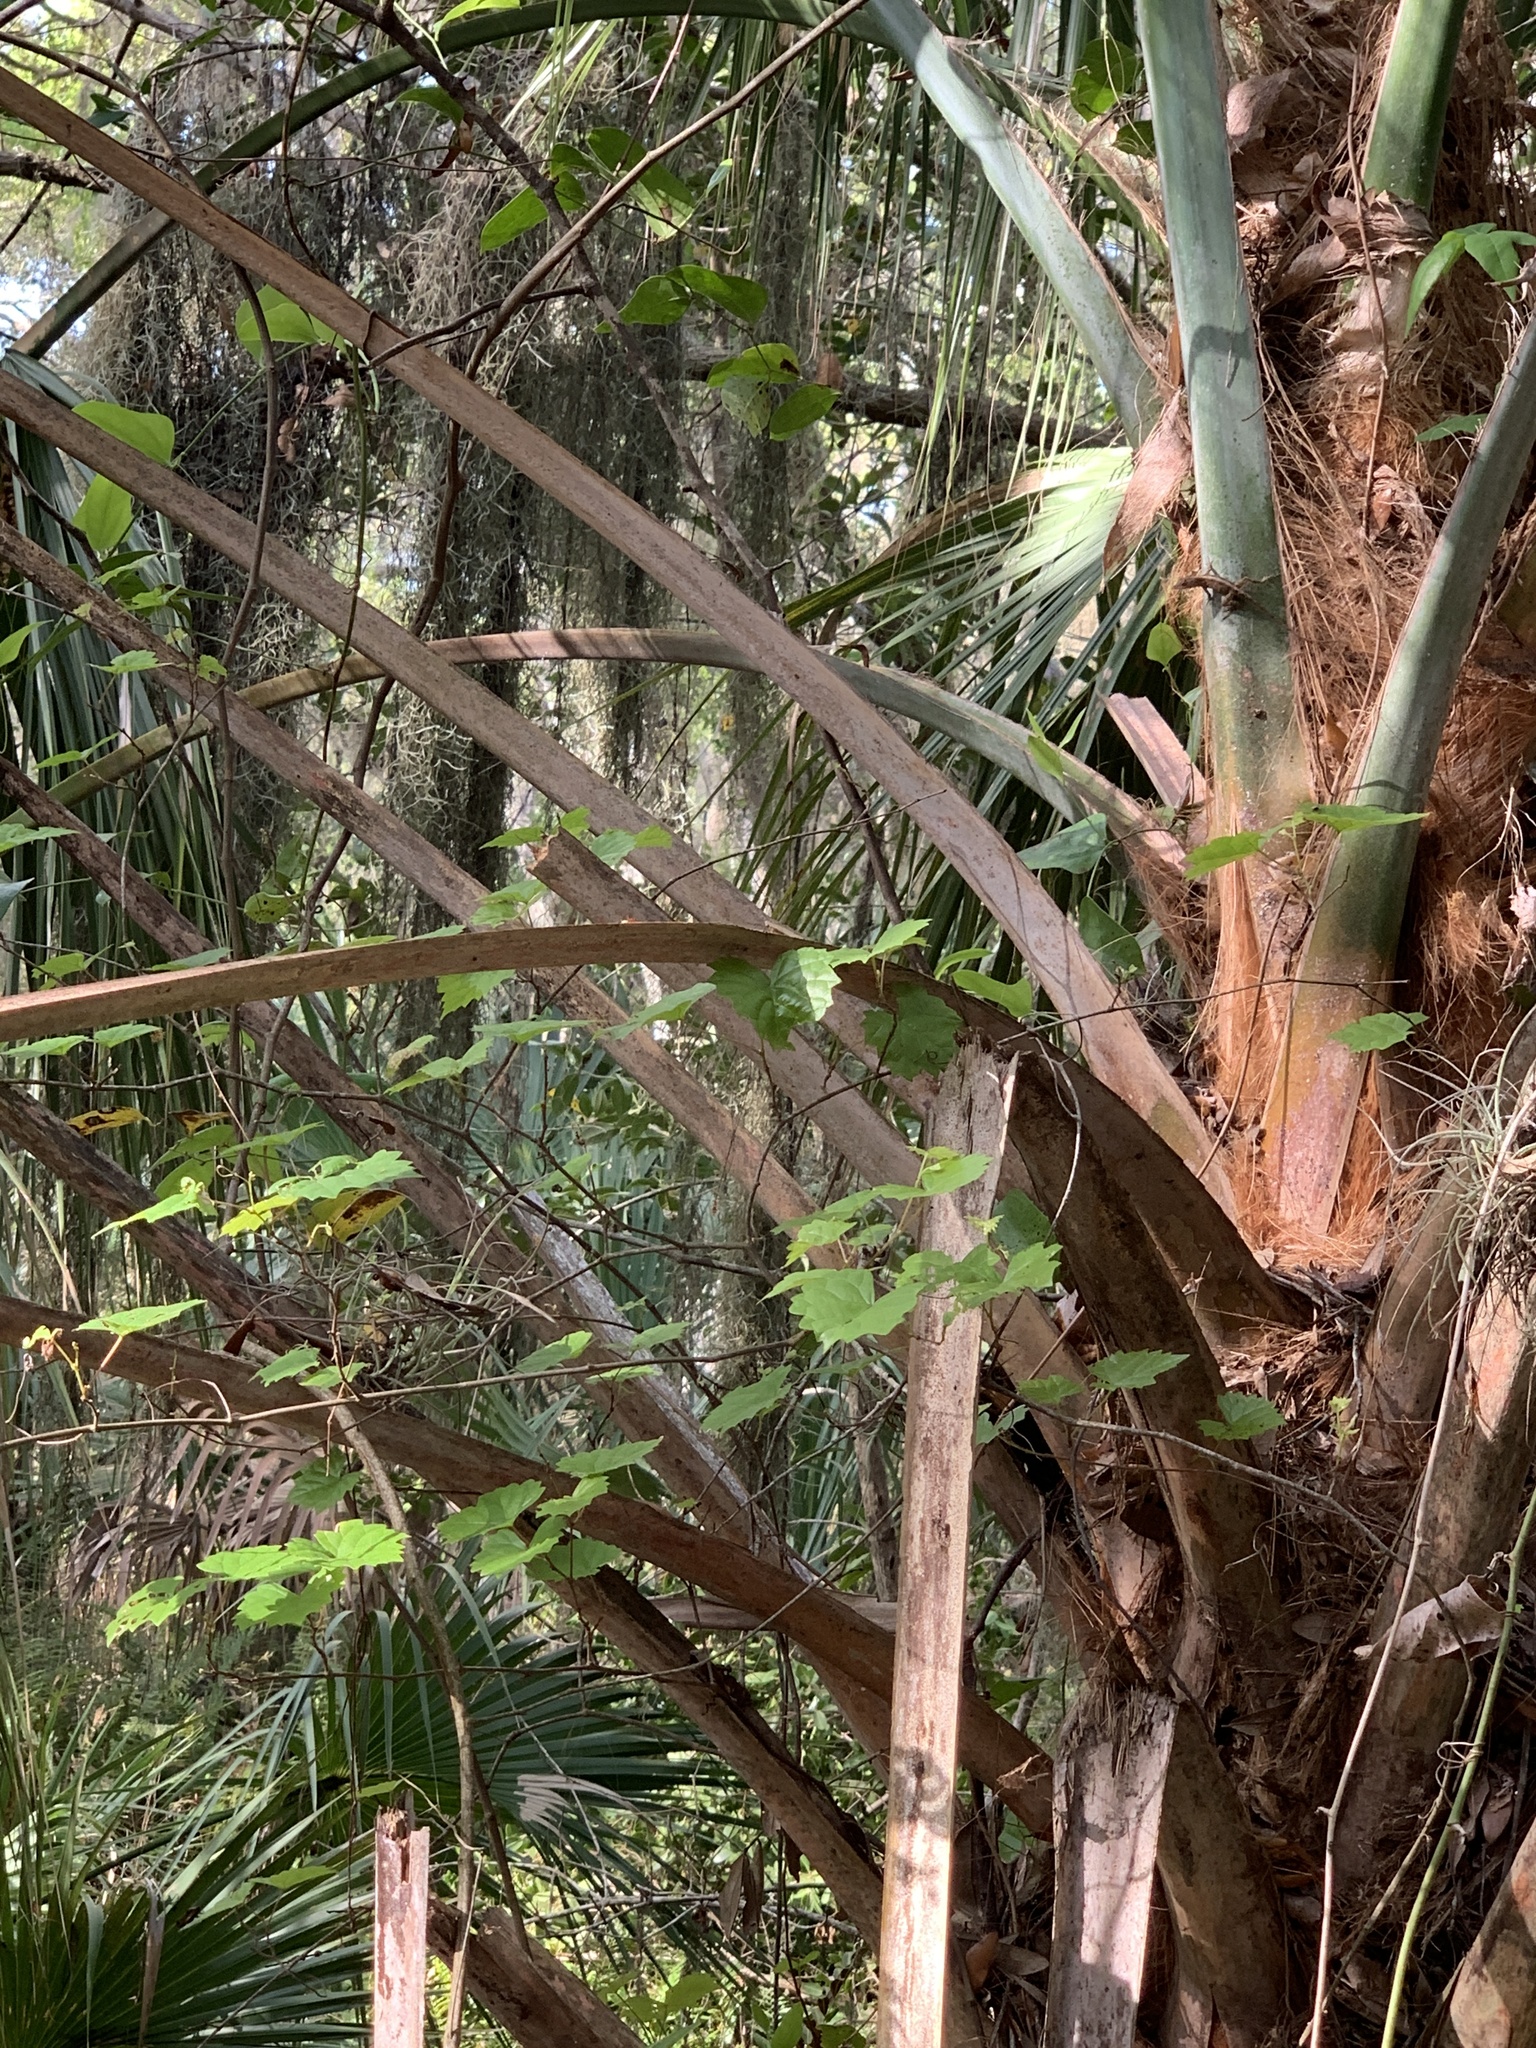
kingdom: Plantae
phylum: Tracheophyta
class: Magnoliopsida
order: Vitales
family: Vitaceae
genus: Vitis
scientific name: Vitis rotundifolia
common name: Muscadine grape
